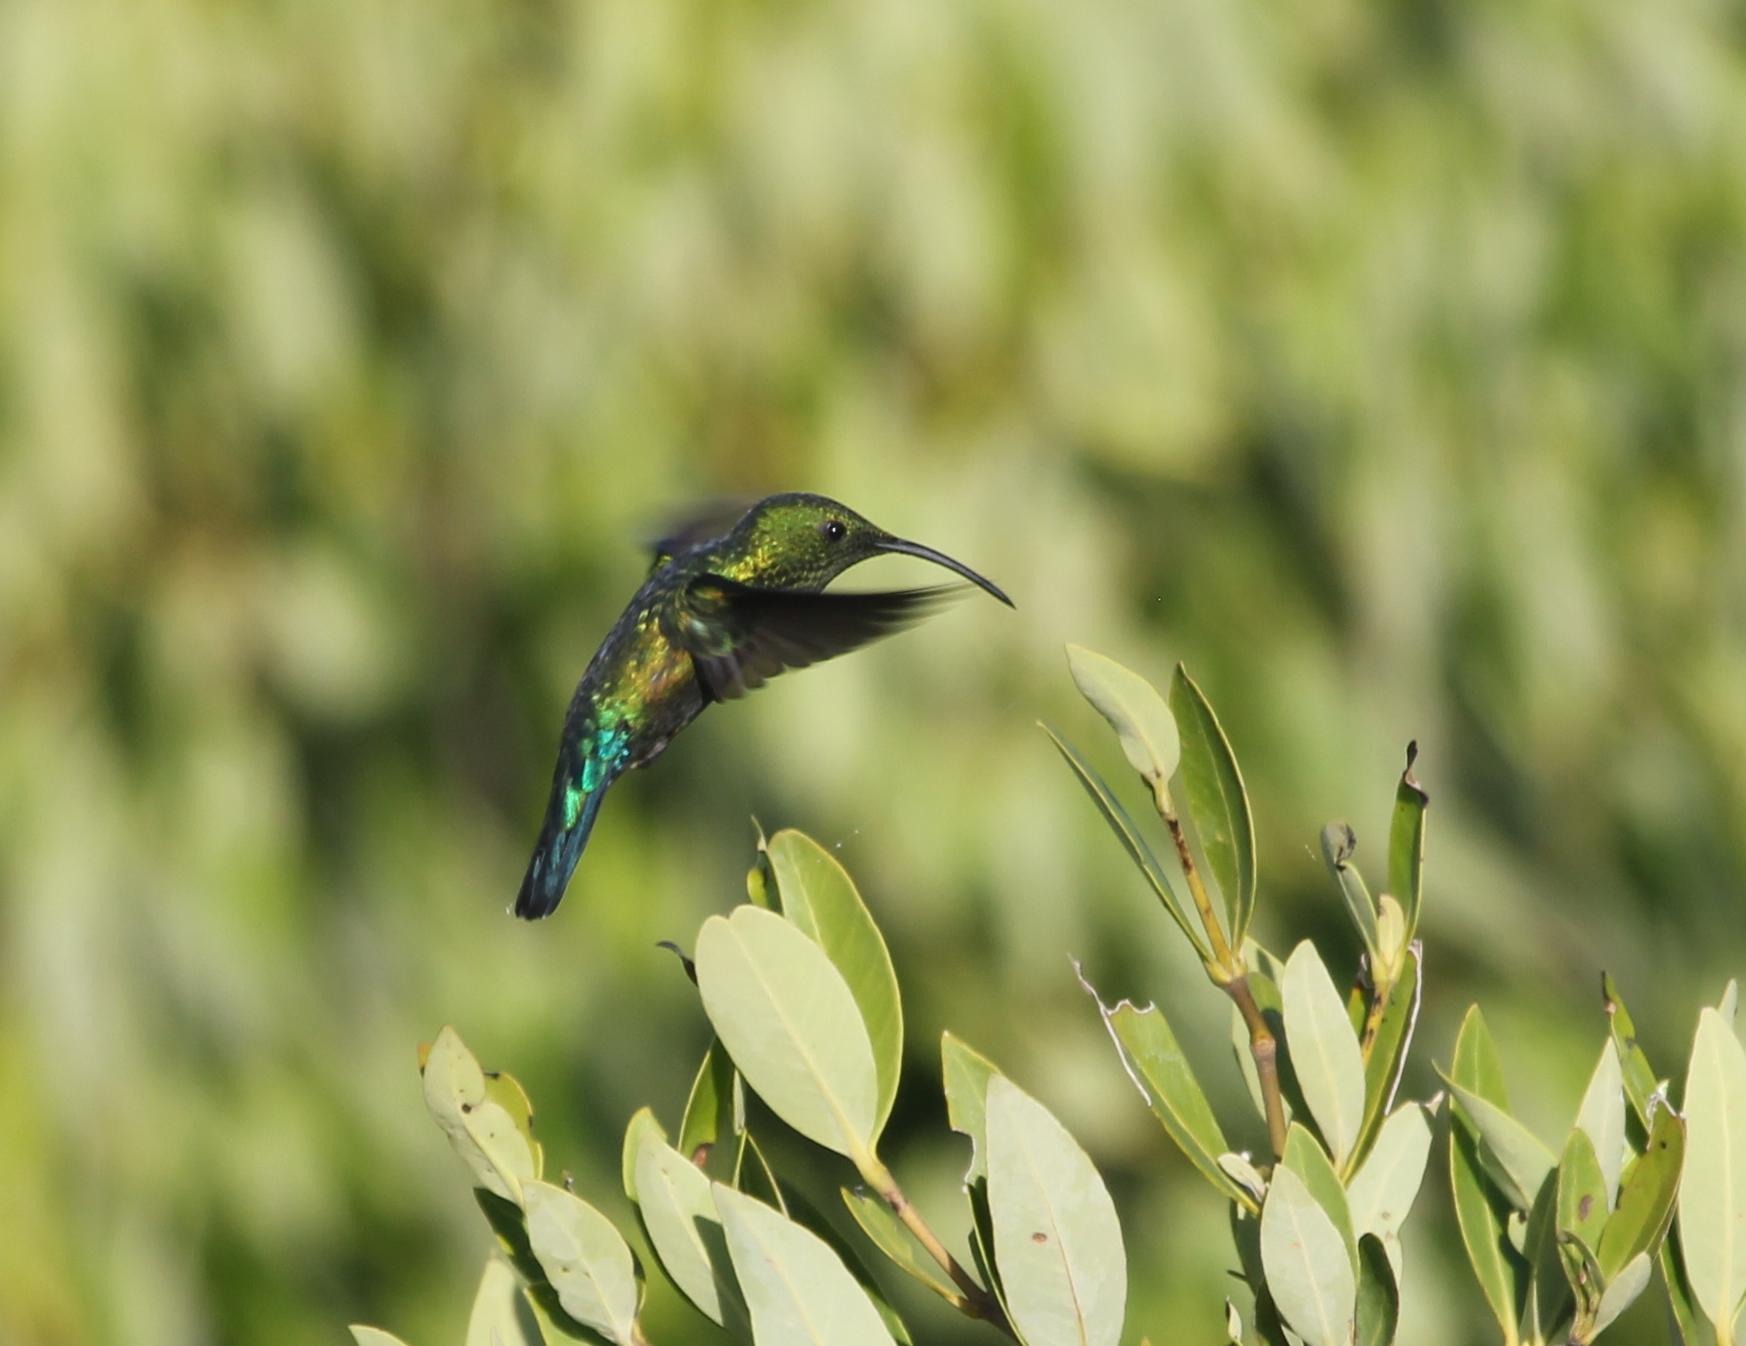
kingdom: Animalia
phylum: Chordata
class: Aves
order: Apodiformes
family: Trochilidae
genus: Eulampis
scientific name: Eulampis holosericeus
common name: Green-throated carib
